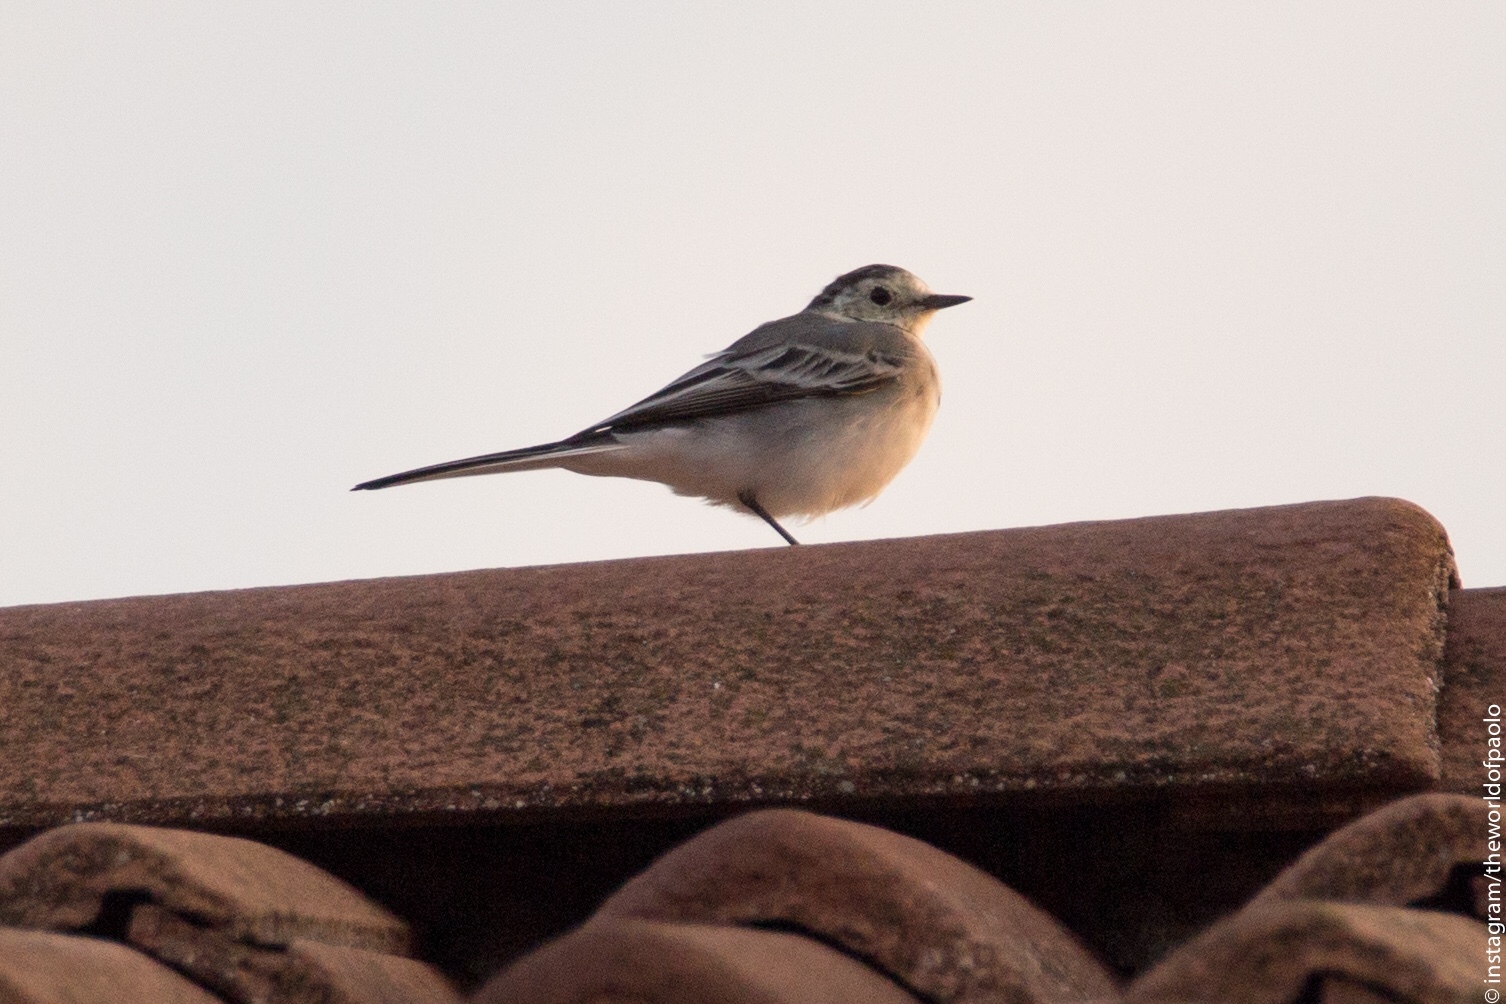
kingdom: Animalia
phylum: Chordata
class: Aves
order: Passeriformes
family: Motacillidae
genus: Motacilla
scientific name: Motacilla alba
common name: White wagtail
